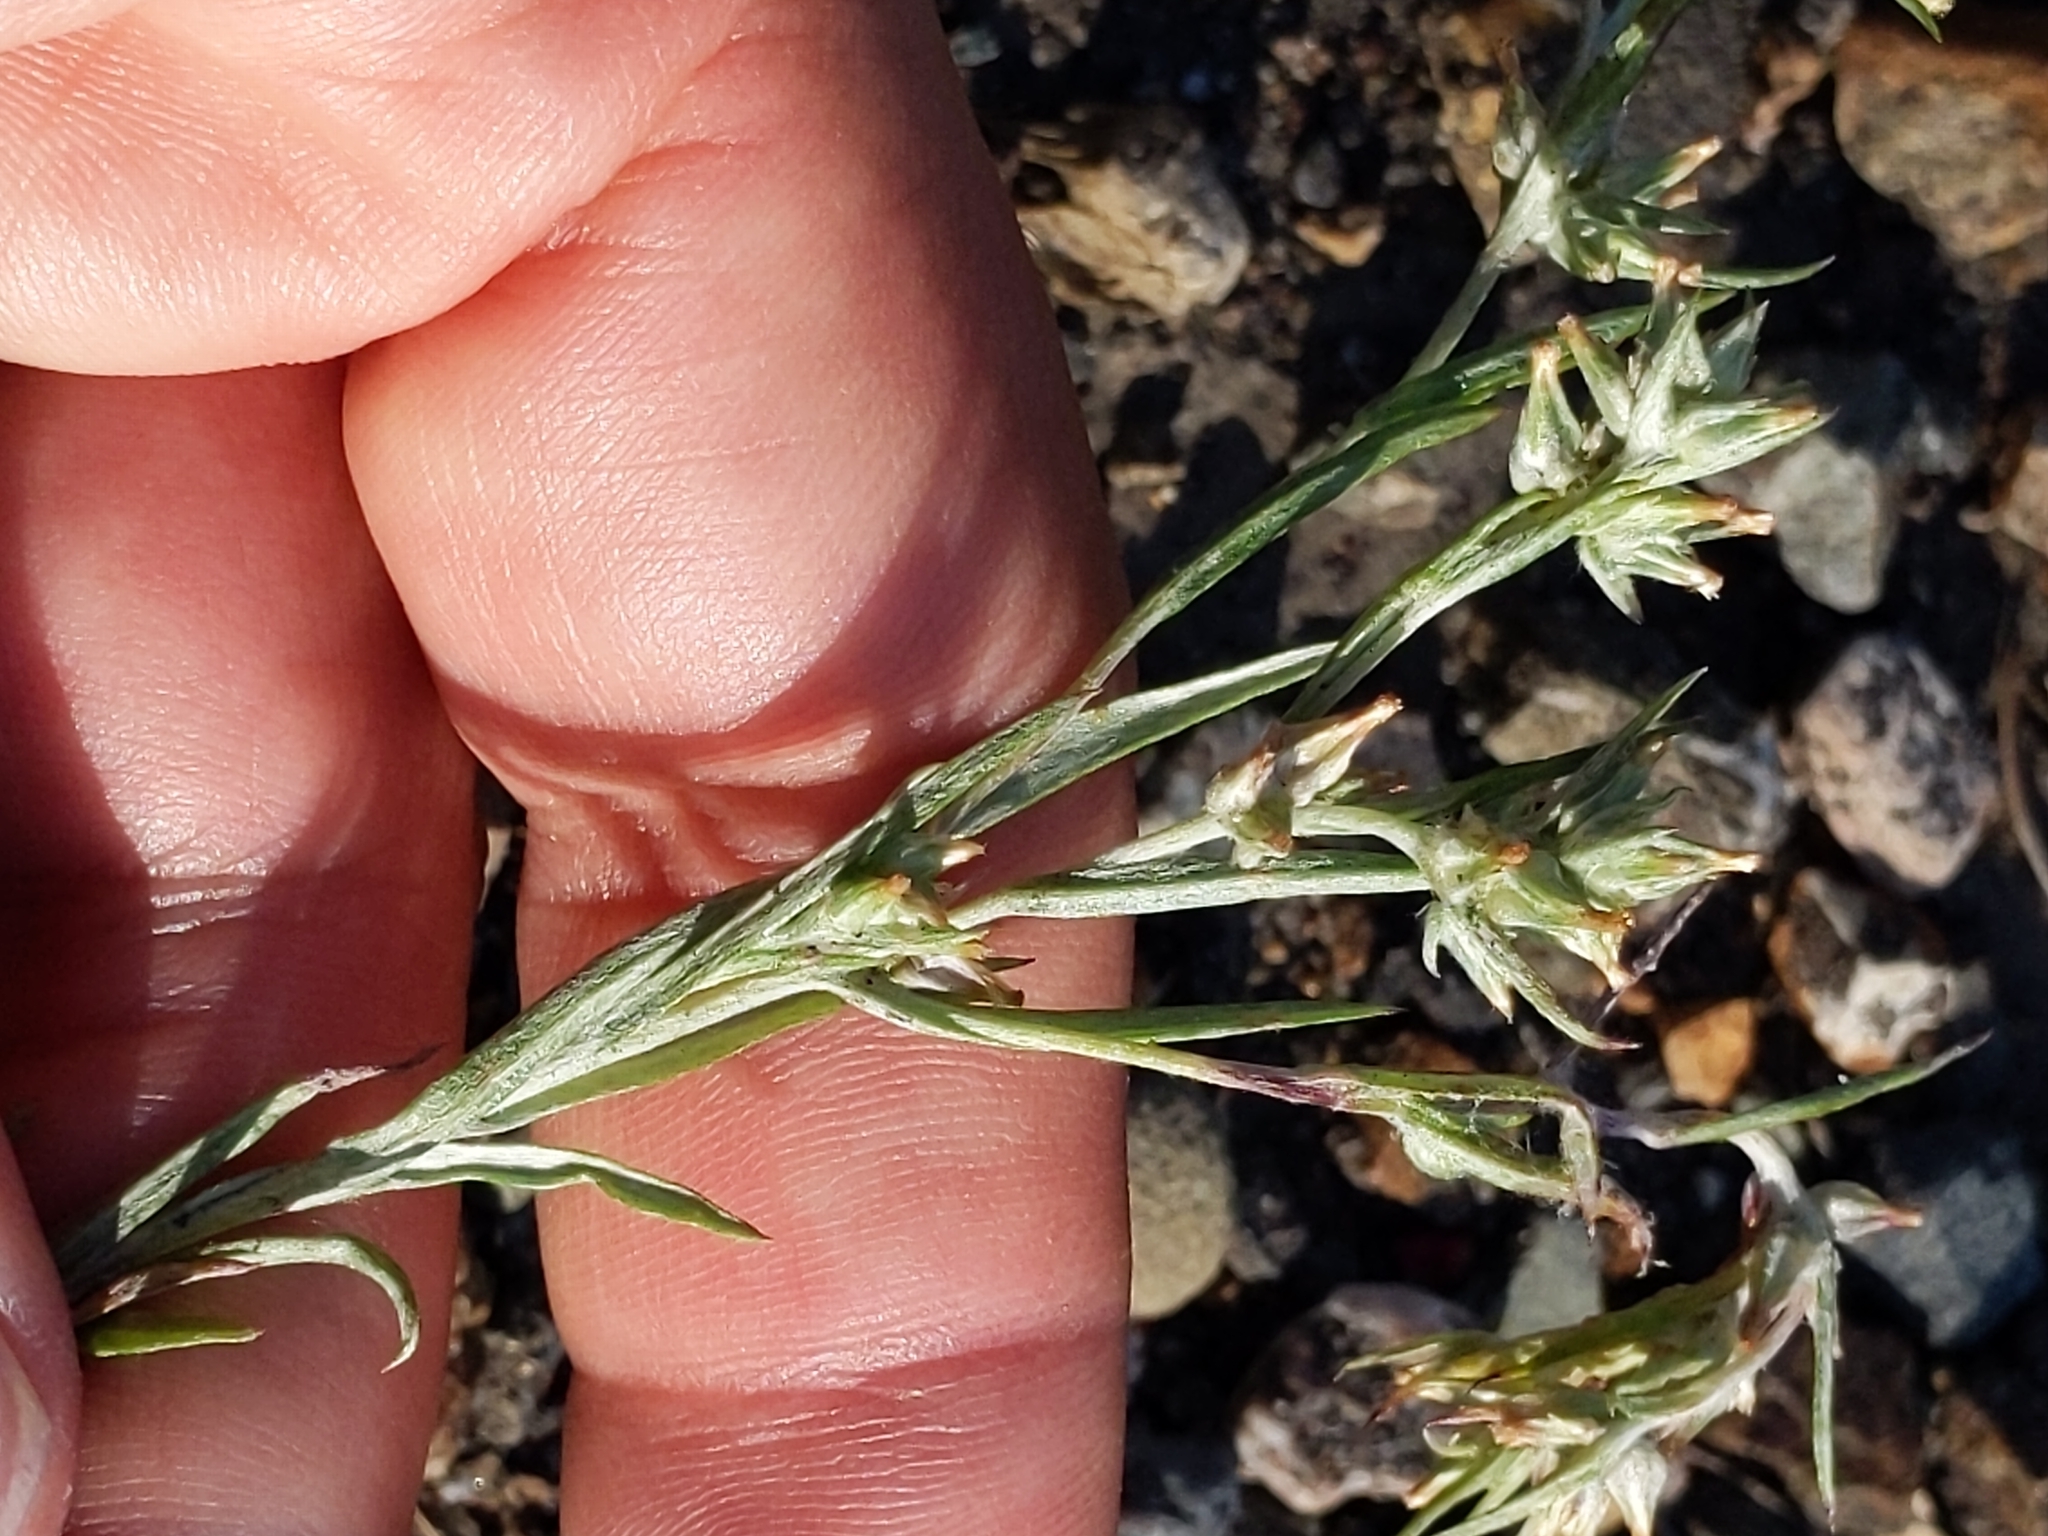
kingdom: Plantae
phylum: Tracheophyta
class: Magnoliopsida
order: Asterales
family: Asteraceae
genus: Logfia
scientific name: Logfia gallica
